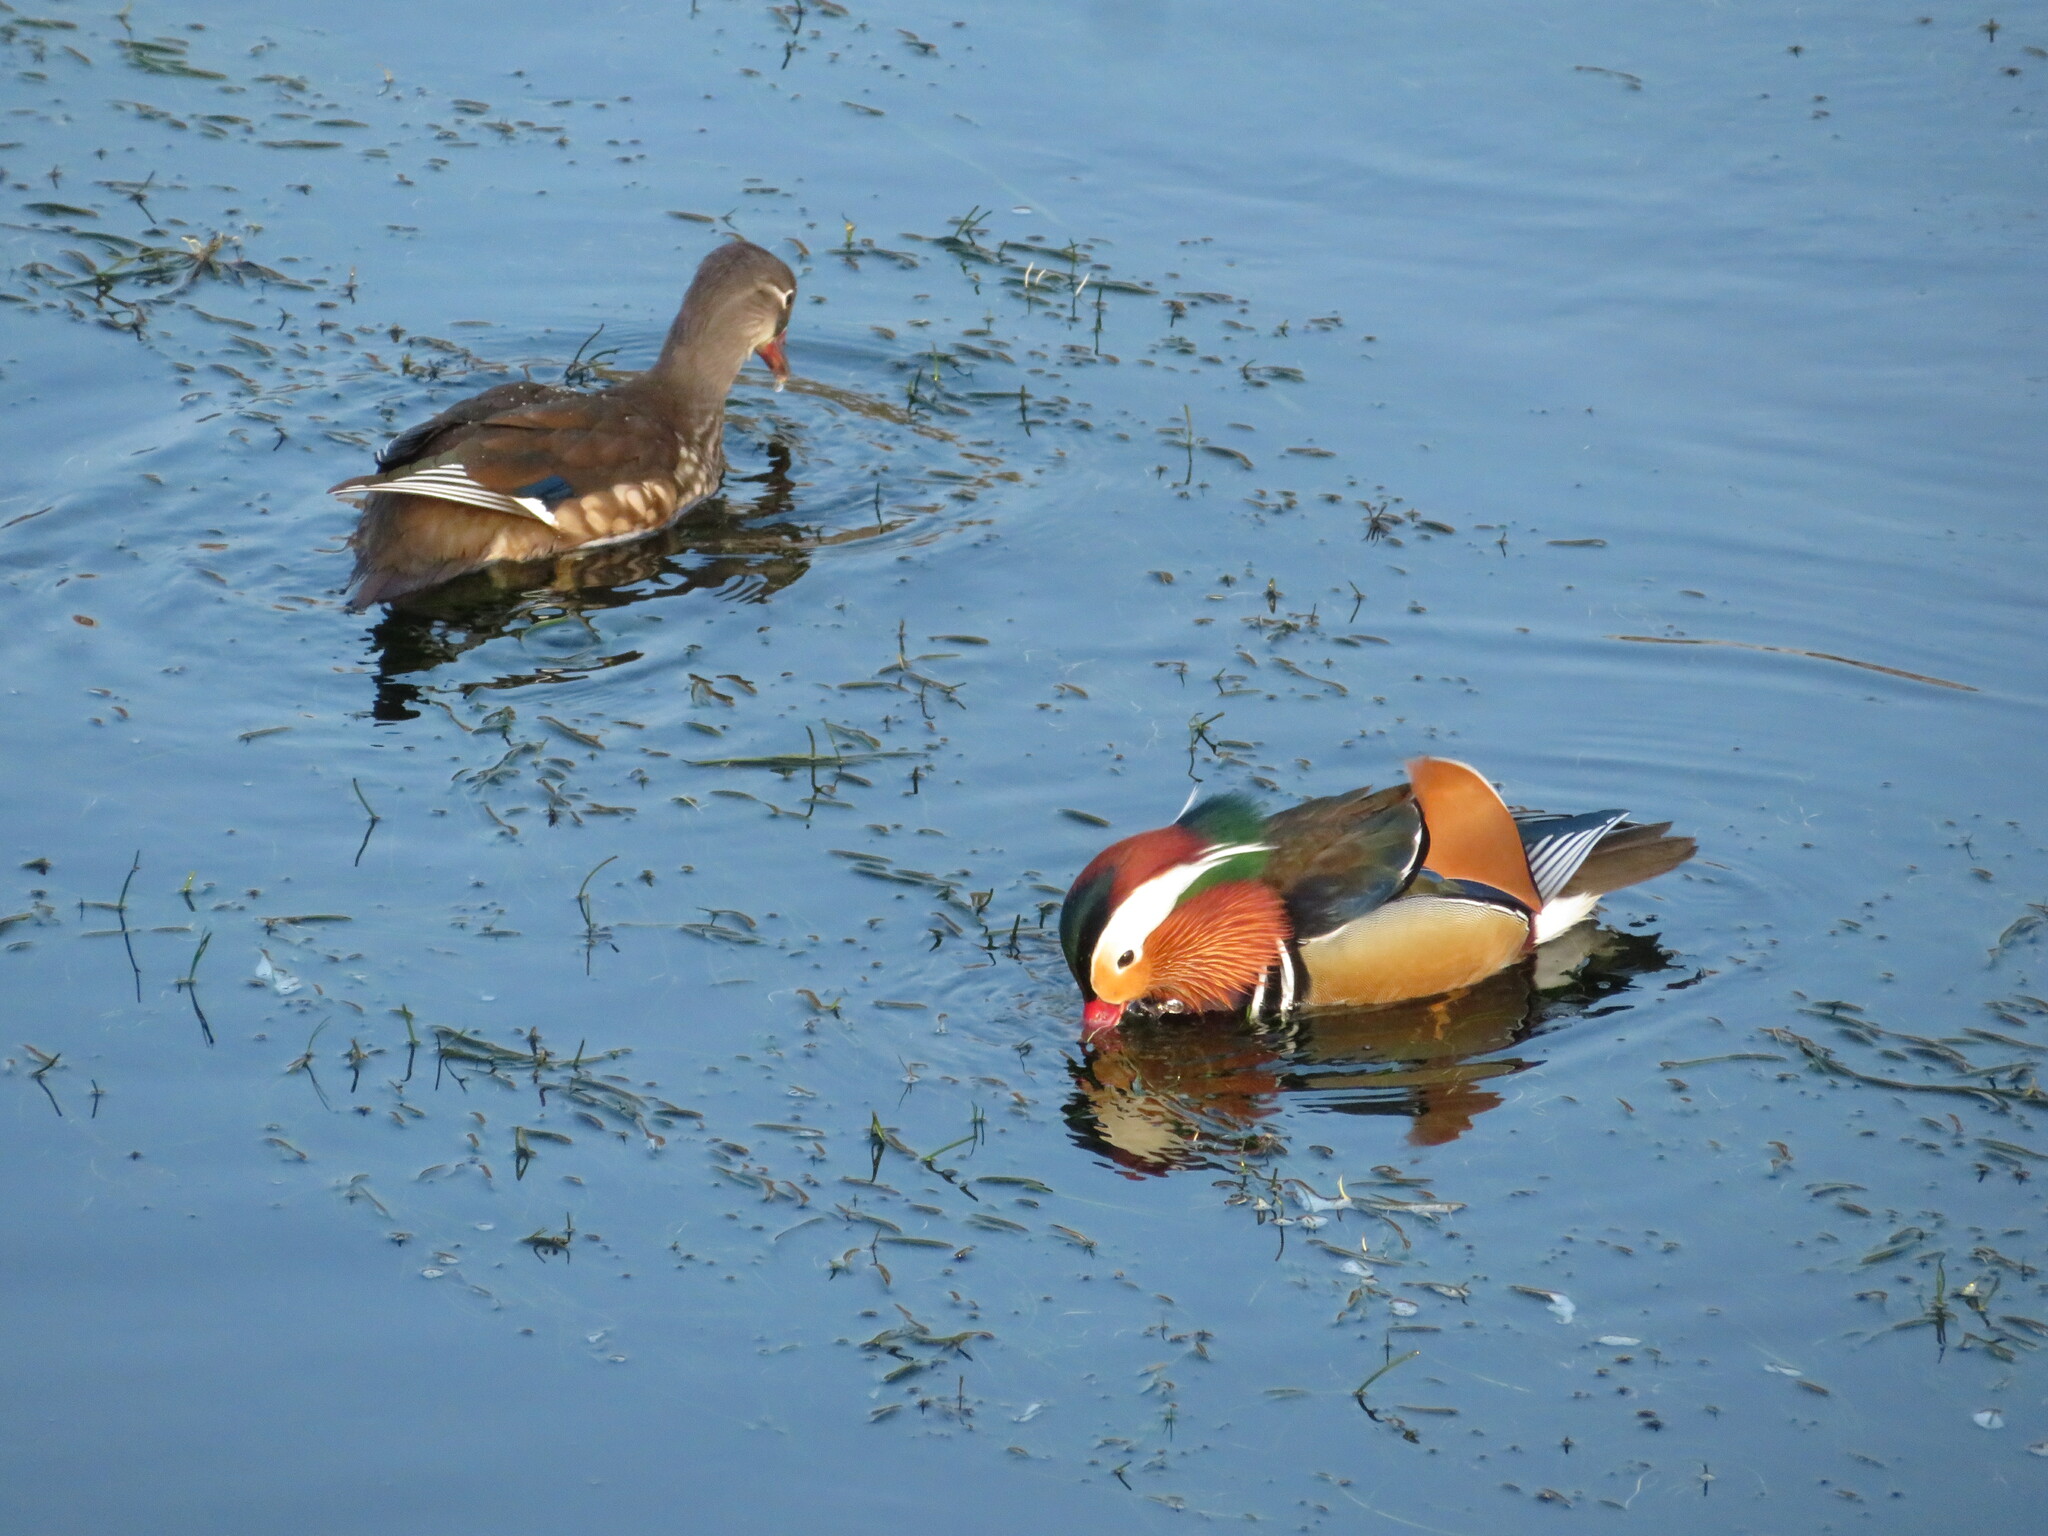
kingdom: Animalia
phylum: Chordata
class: Aves
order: Anseriformes
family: Anatidae
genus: Aix
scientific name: Aix galericulata
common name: Mandarin duck
